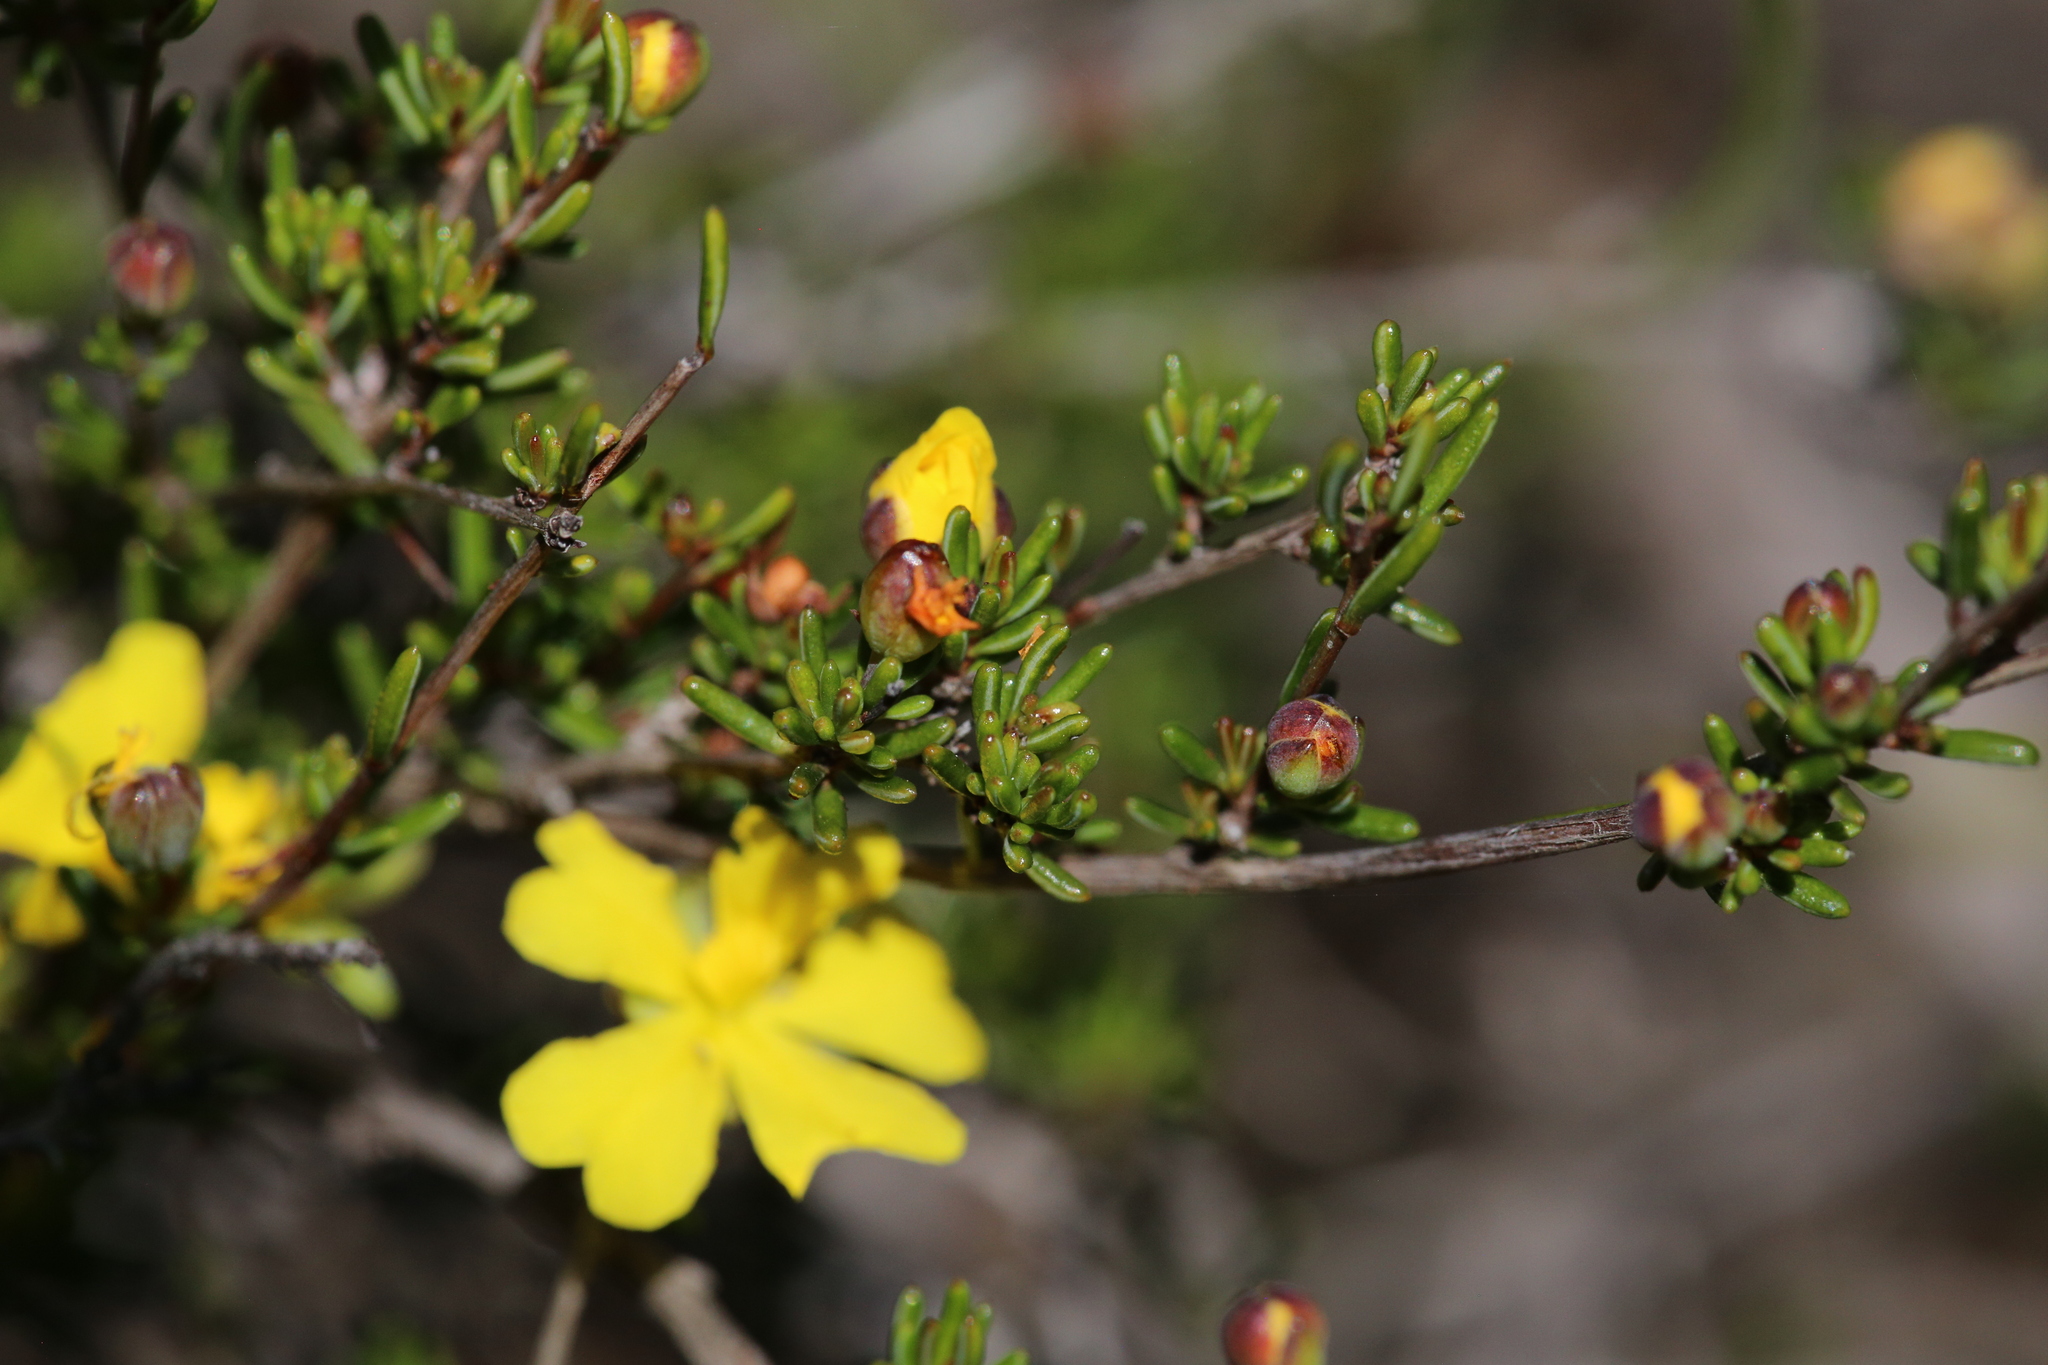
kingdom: Plantae
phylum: Tracheophyta
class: Magnoliopsida
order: Dilleniales
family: Dilleniaceae
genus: Hibbertia
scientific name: Hibbertia gracilipes
